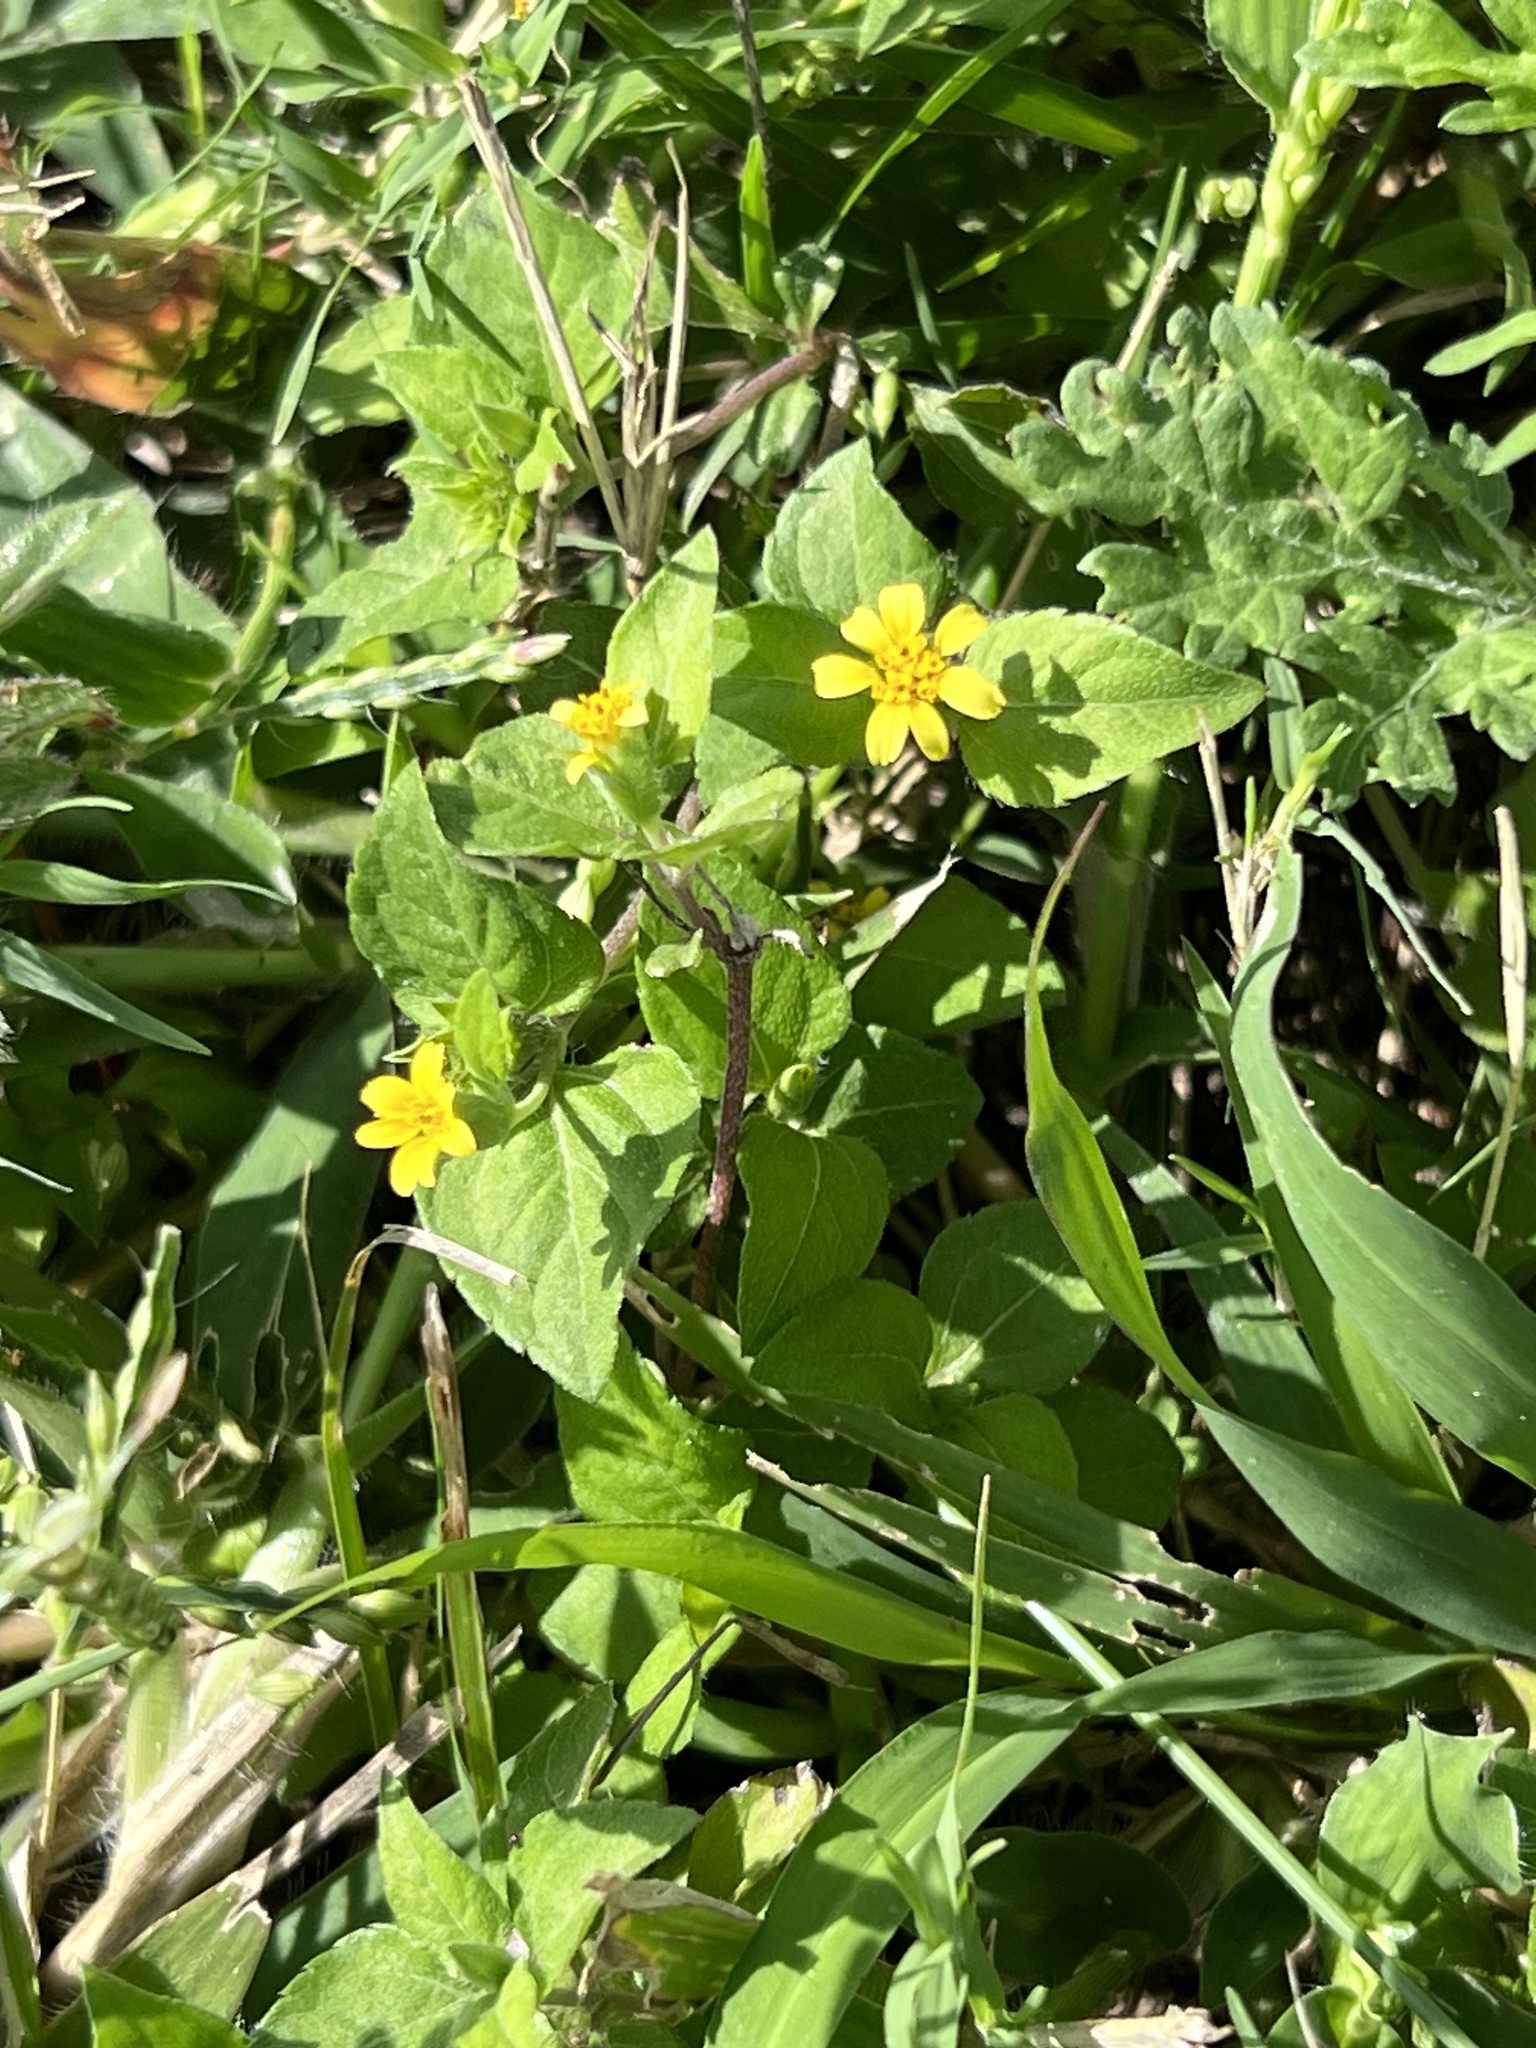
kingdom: Plantae
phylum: Tracheophyta
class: Magnoliopsida
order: Asterales
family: Asteraceae
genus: Calyptocarpus
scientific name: Calyptocarpus vialis
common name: Straggler daisy
